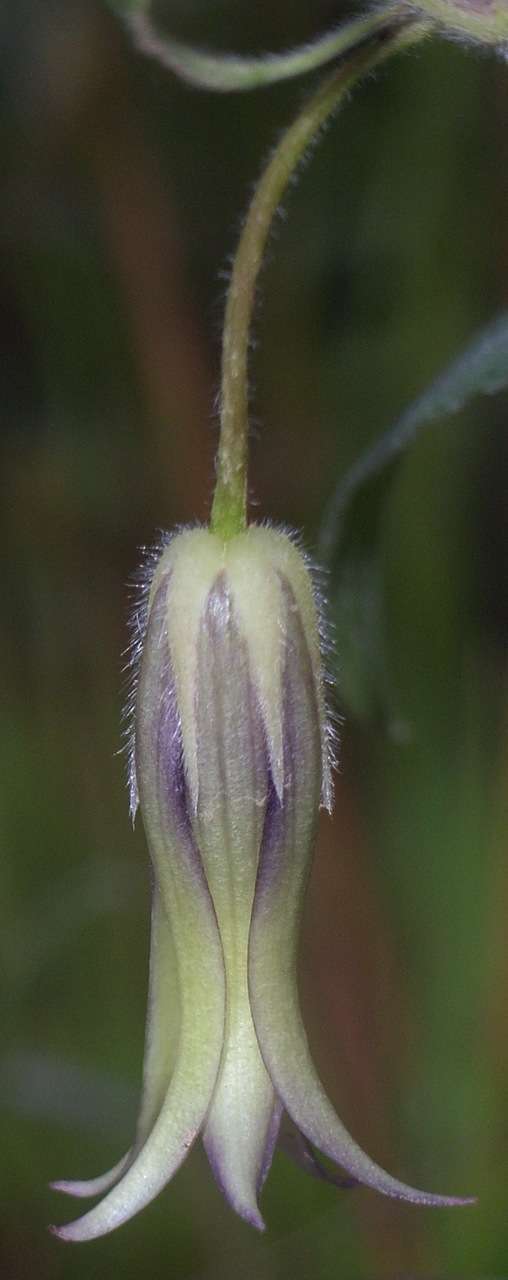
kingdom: Plantae
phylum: Tracheophyta
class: Magnoliopsida
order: Apiales
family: Pittosporaceae
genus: Billardiera
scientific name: Billardiera mutabilis
